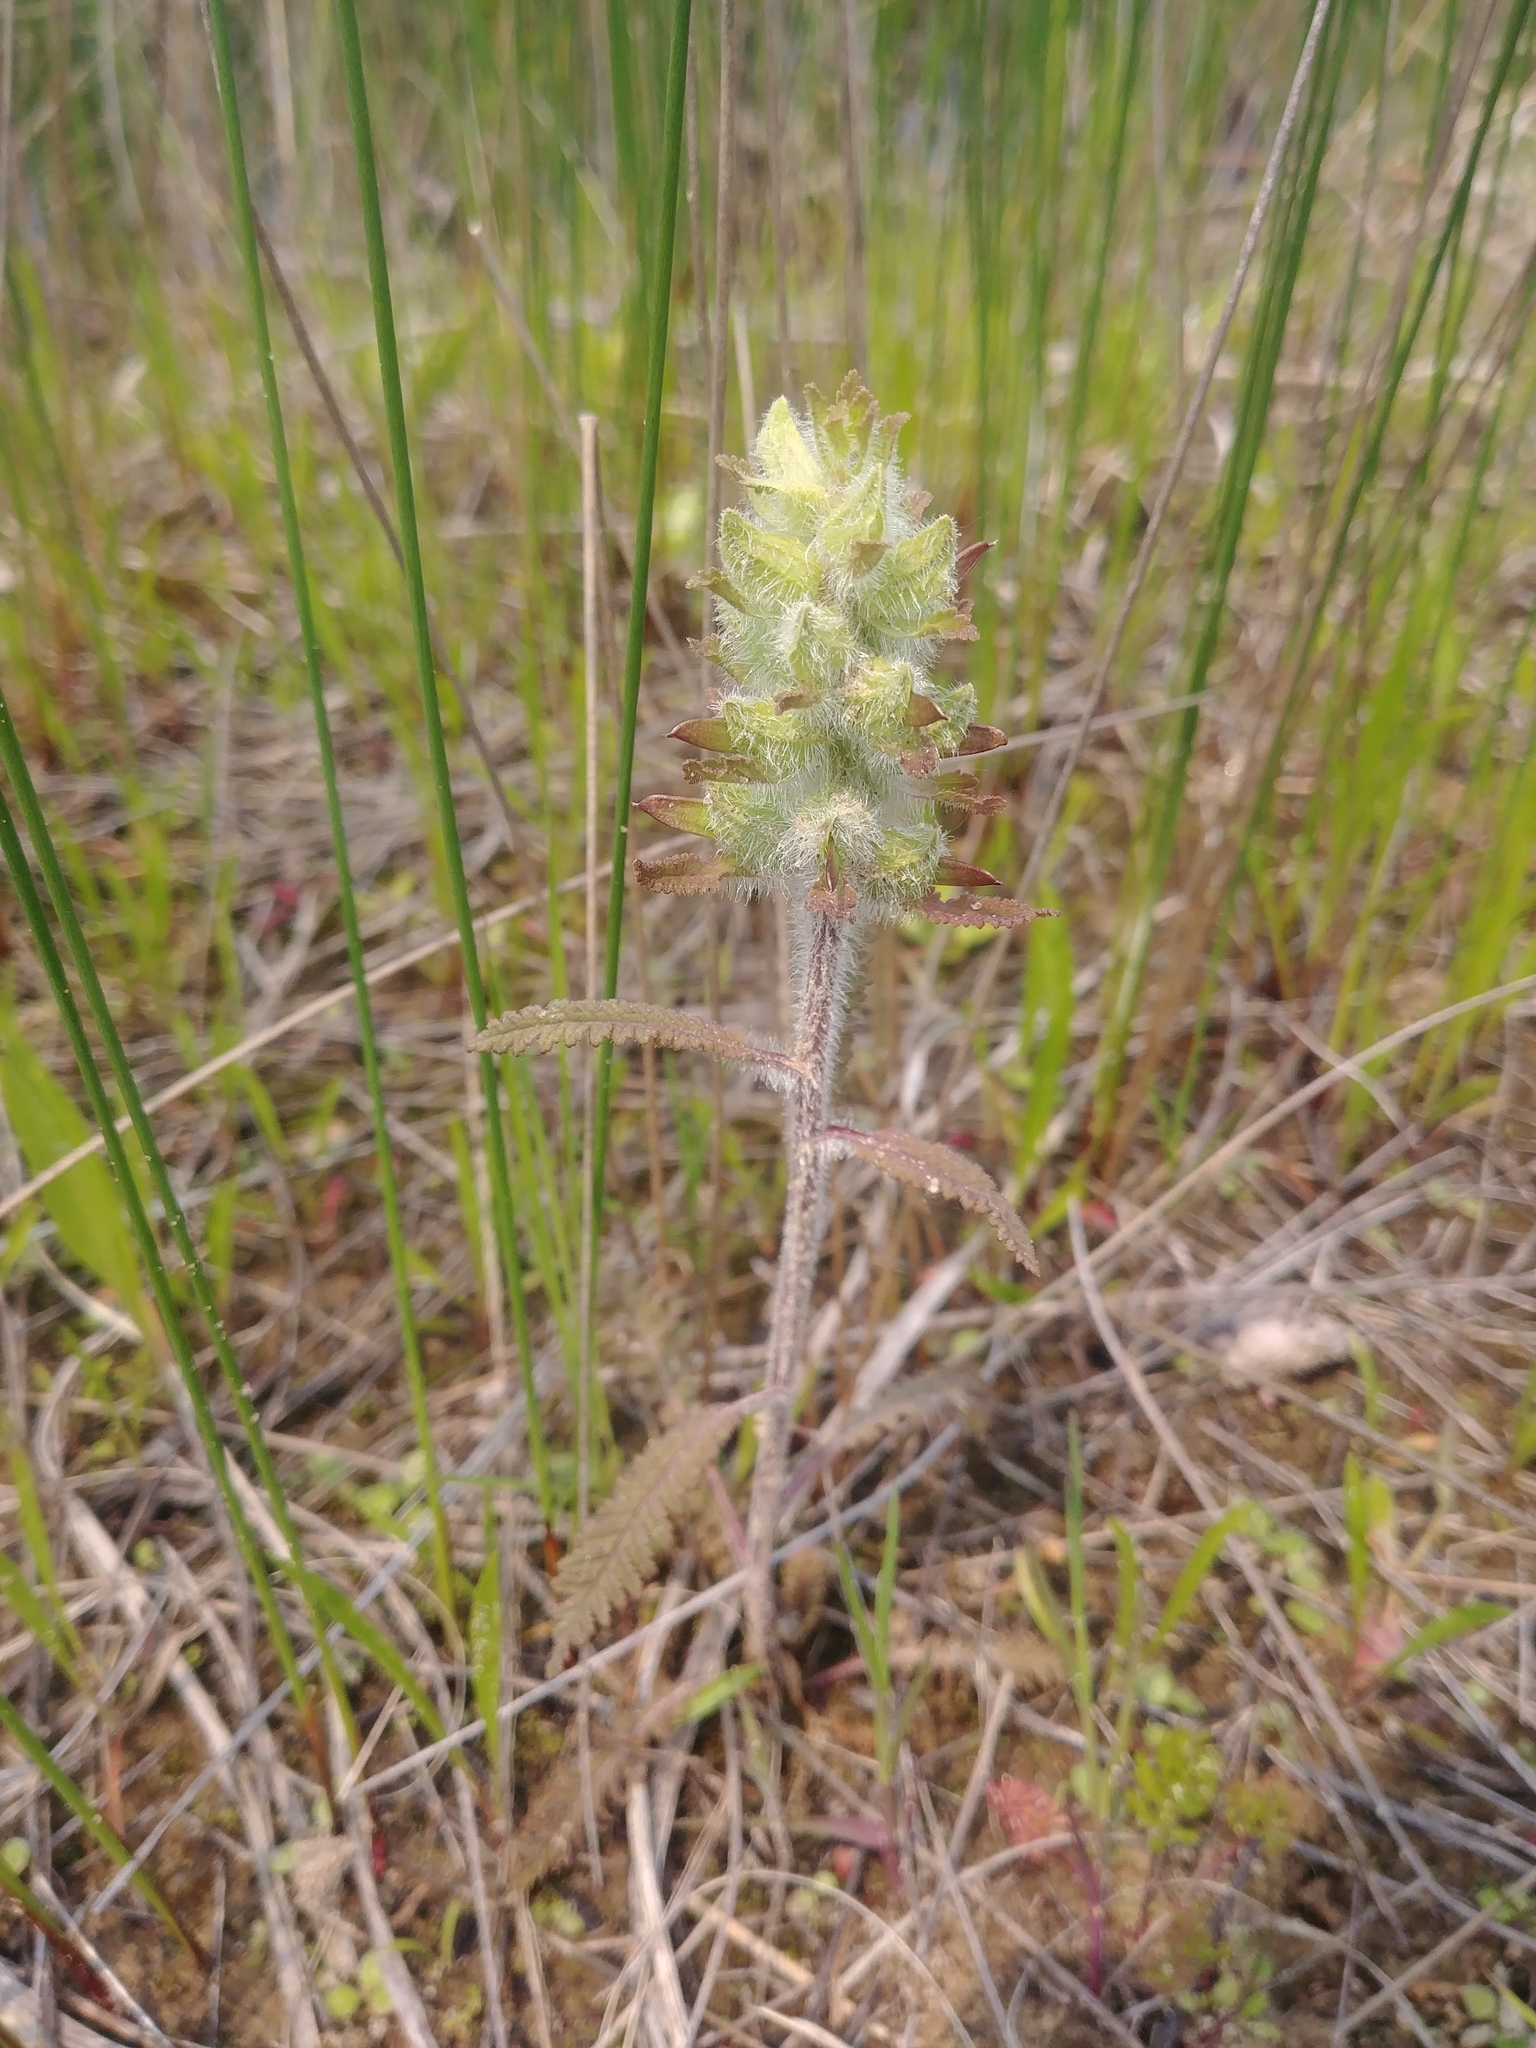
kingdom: Plantae
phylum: Tracheophyta
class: Magnoliopsida
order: Lamiales
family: Orobanchaceae
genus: Pedicularis
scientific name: Pedicularis canadensis
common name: Early lousewort
